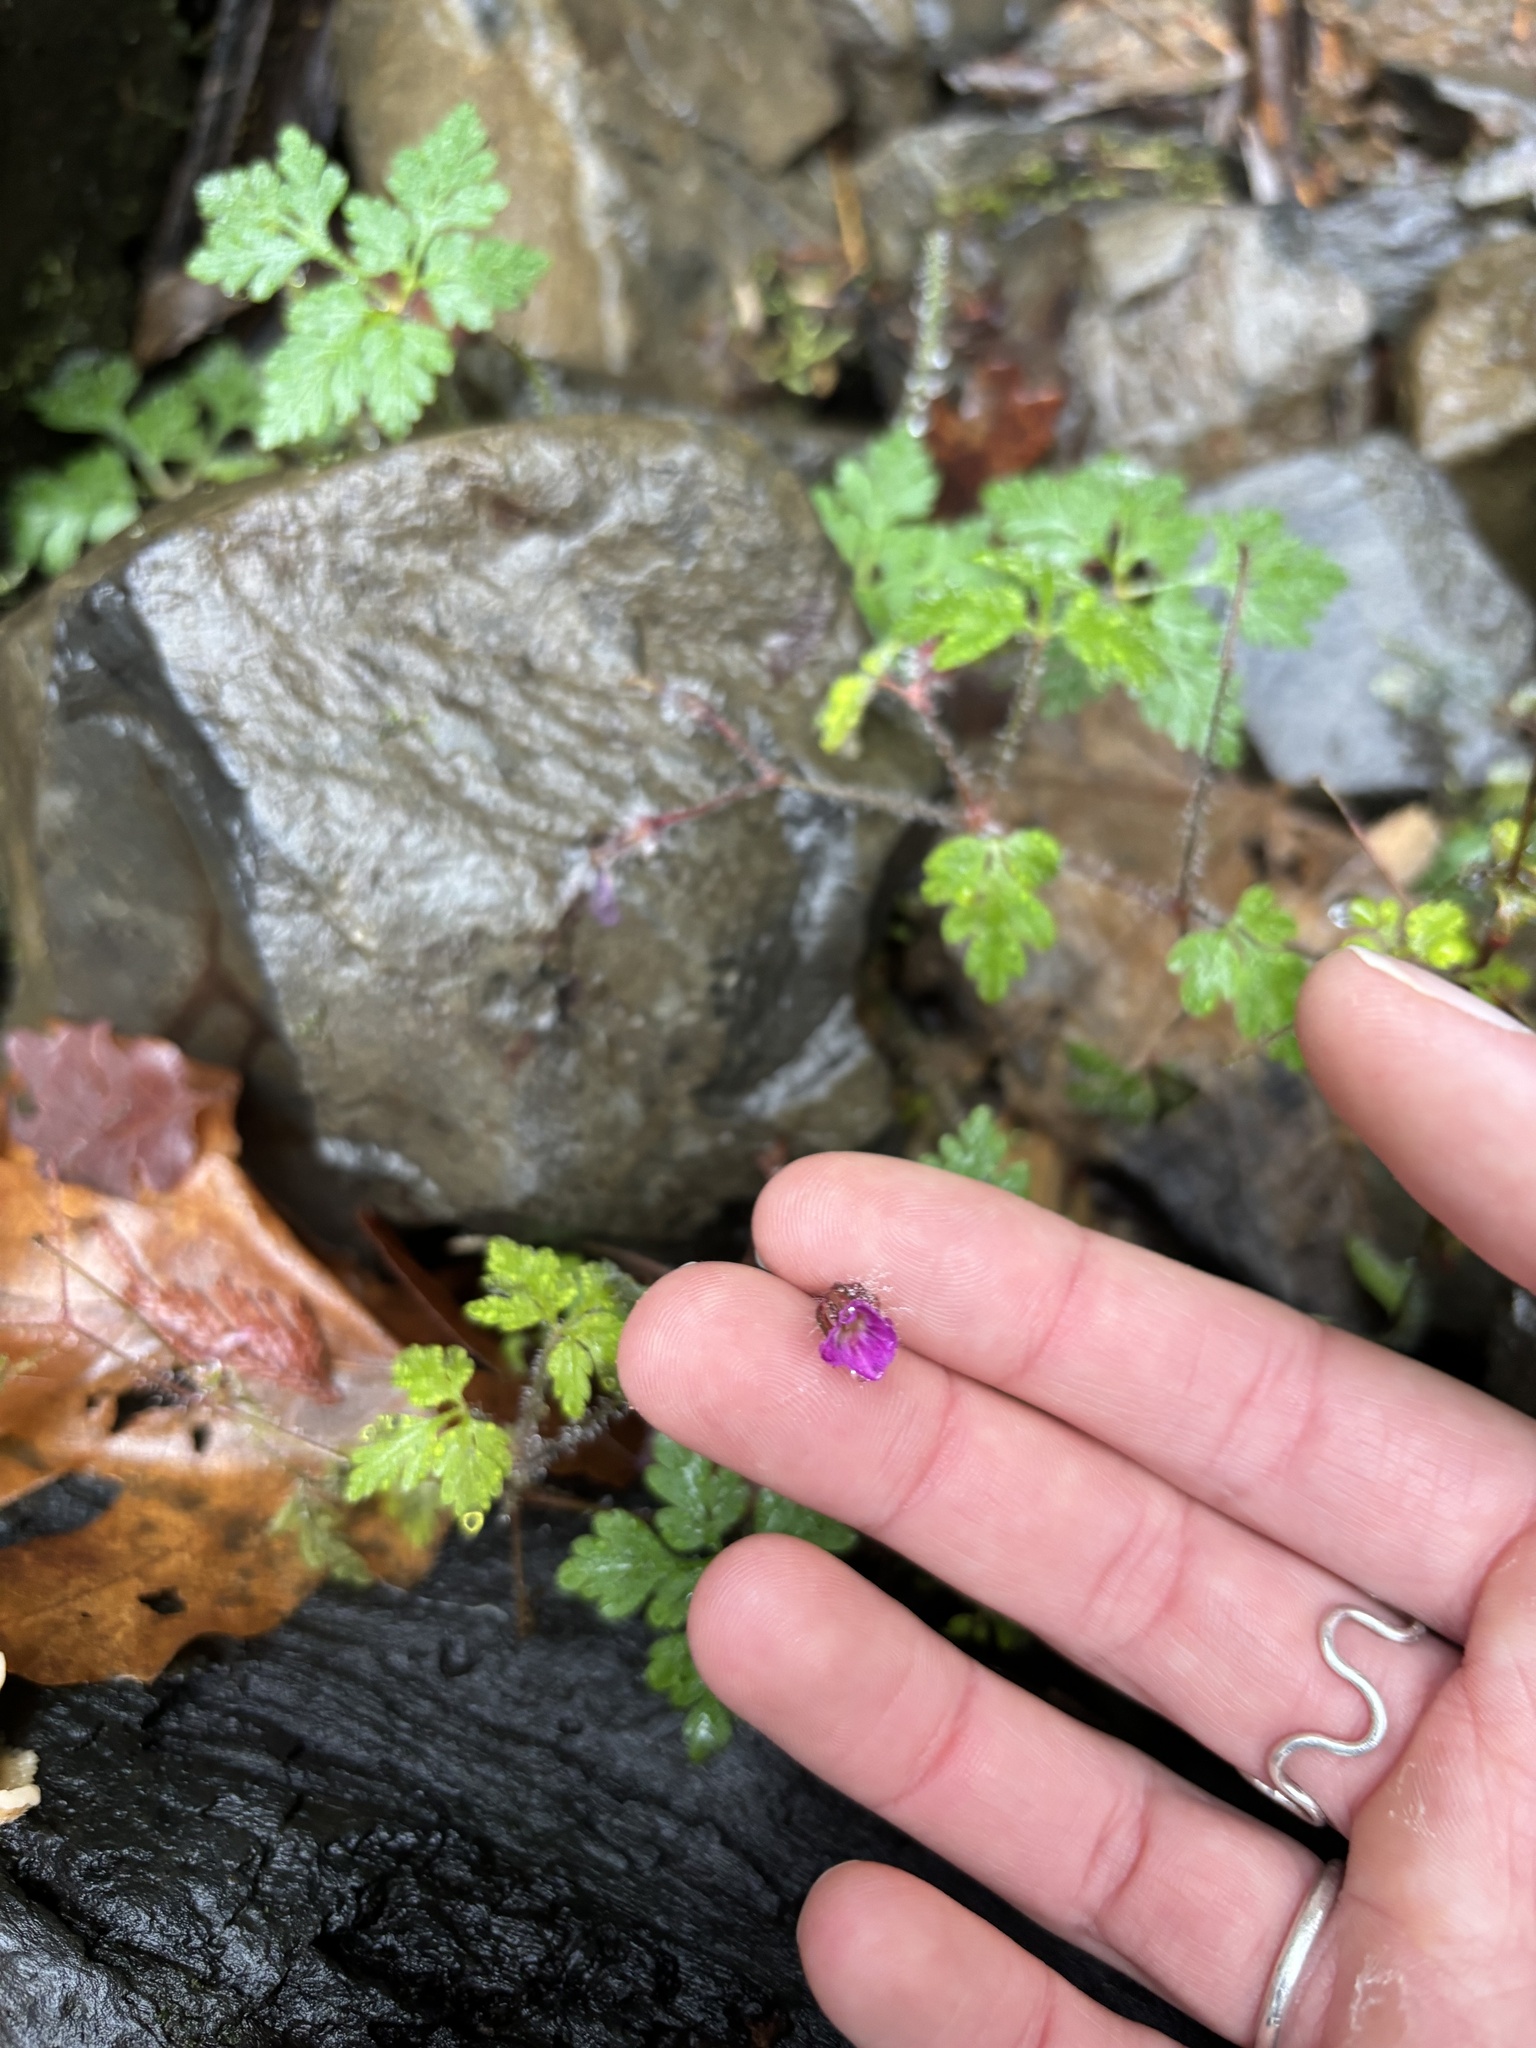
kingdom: Plantae
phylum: Tracheophyta
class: Magnoliopsida
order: Geraniales
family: Geraniaceae
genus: Geranium
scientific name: Geranium robertianum
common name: Herb-robert
